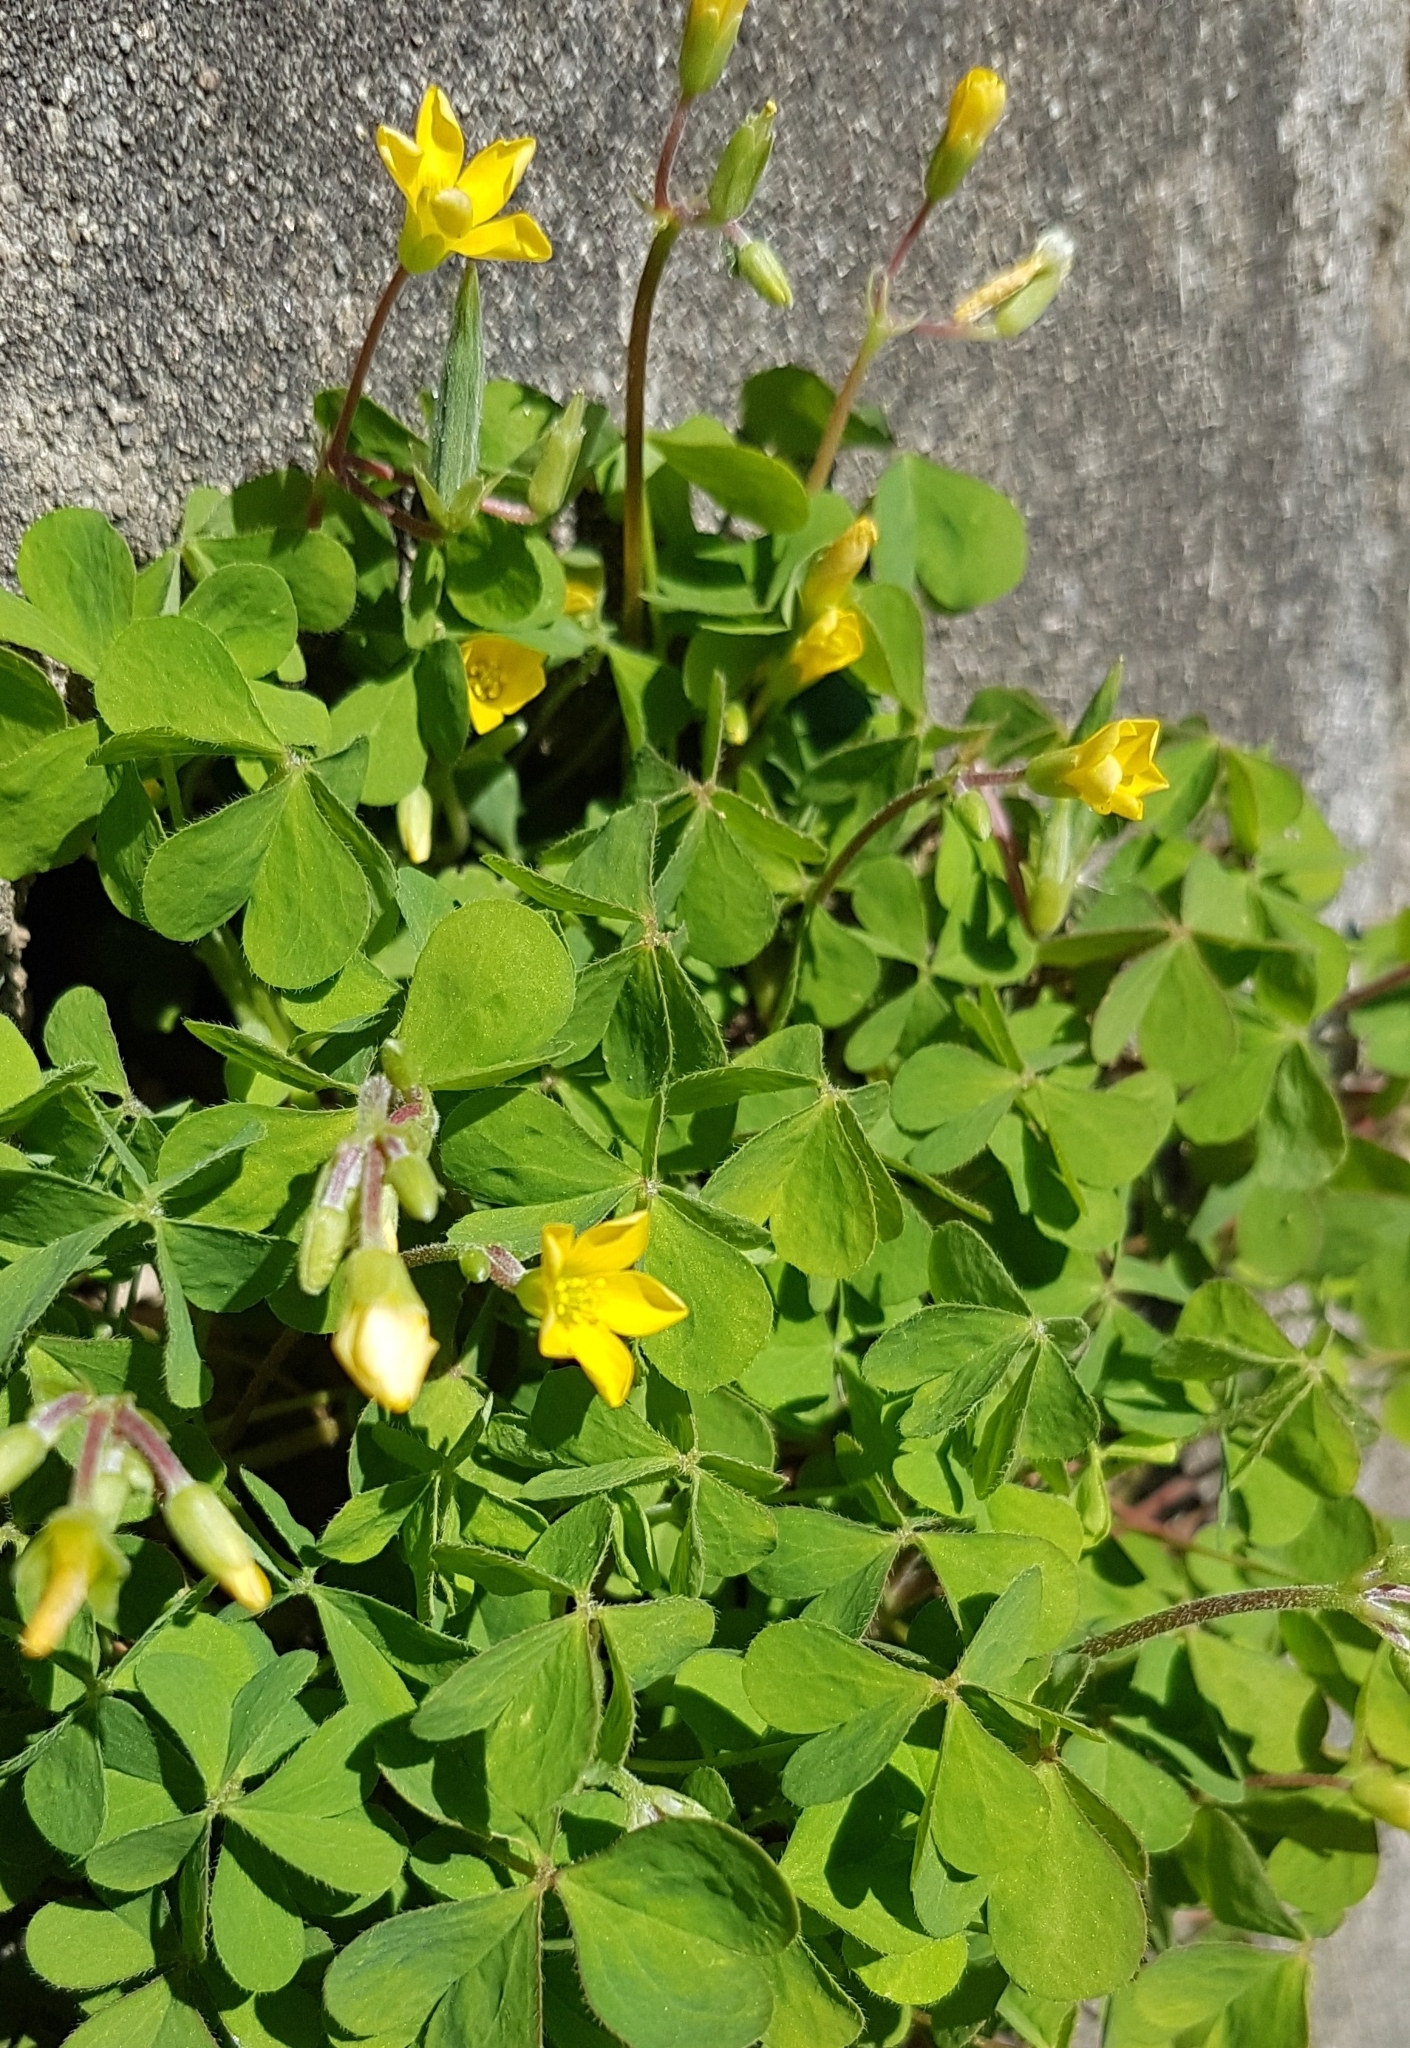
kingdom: Plantae
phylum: Tracheophyta
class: Magnoliopsida
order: Oxalidales
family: Oxalidaceae
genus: Oxalis
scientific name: Oxalis stricta
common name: Upright yellow-sorrel
